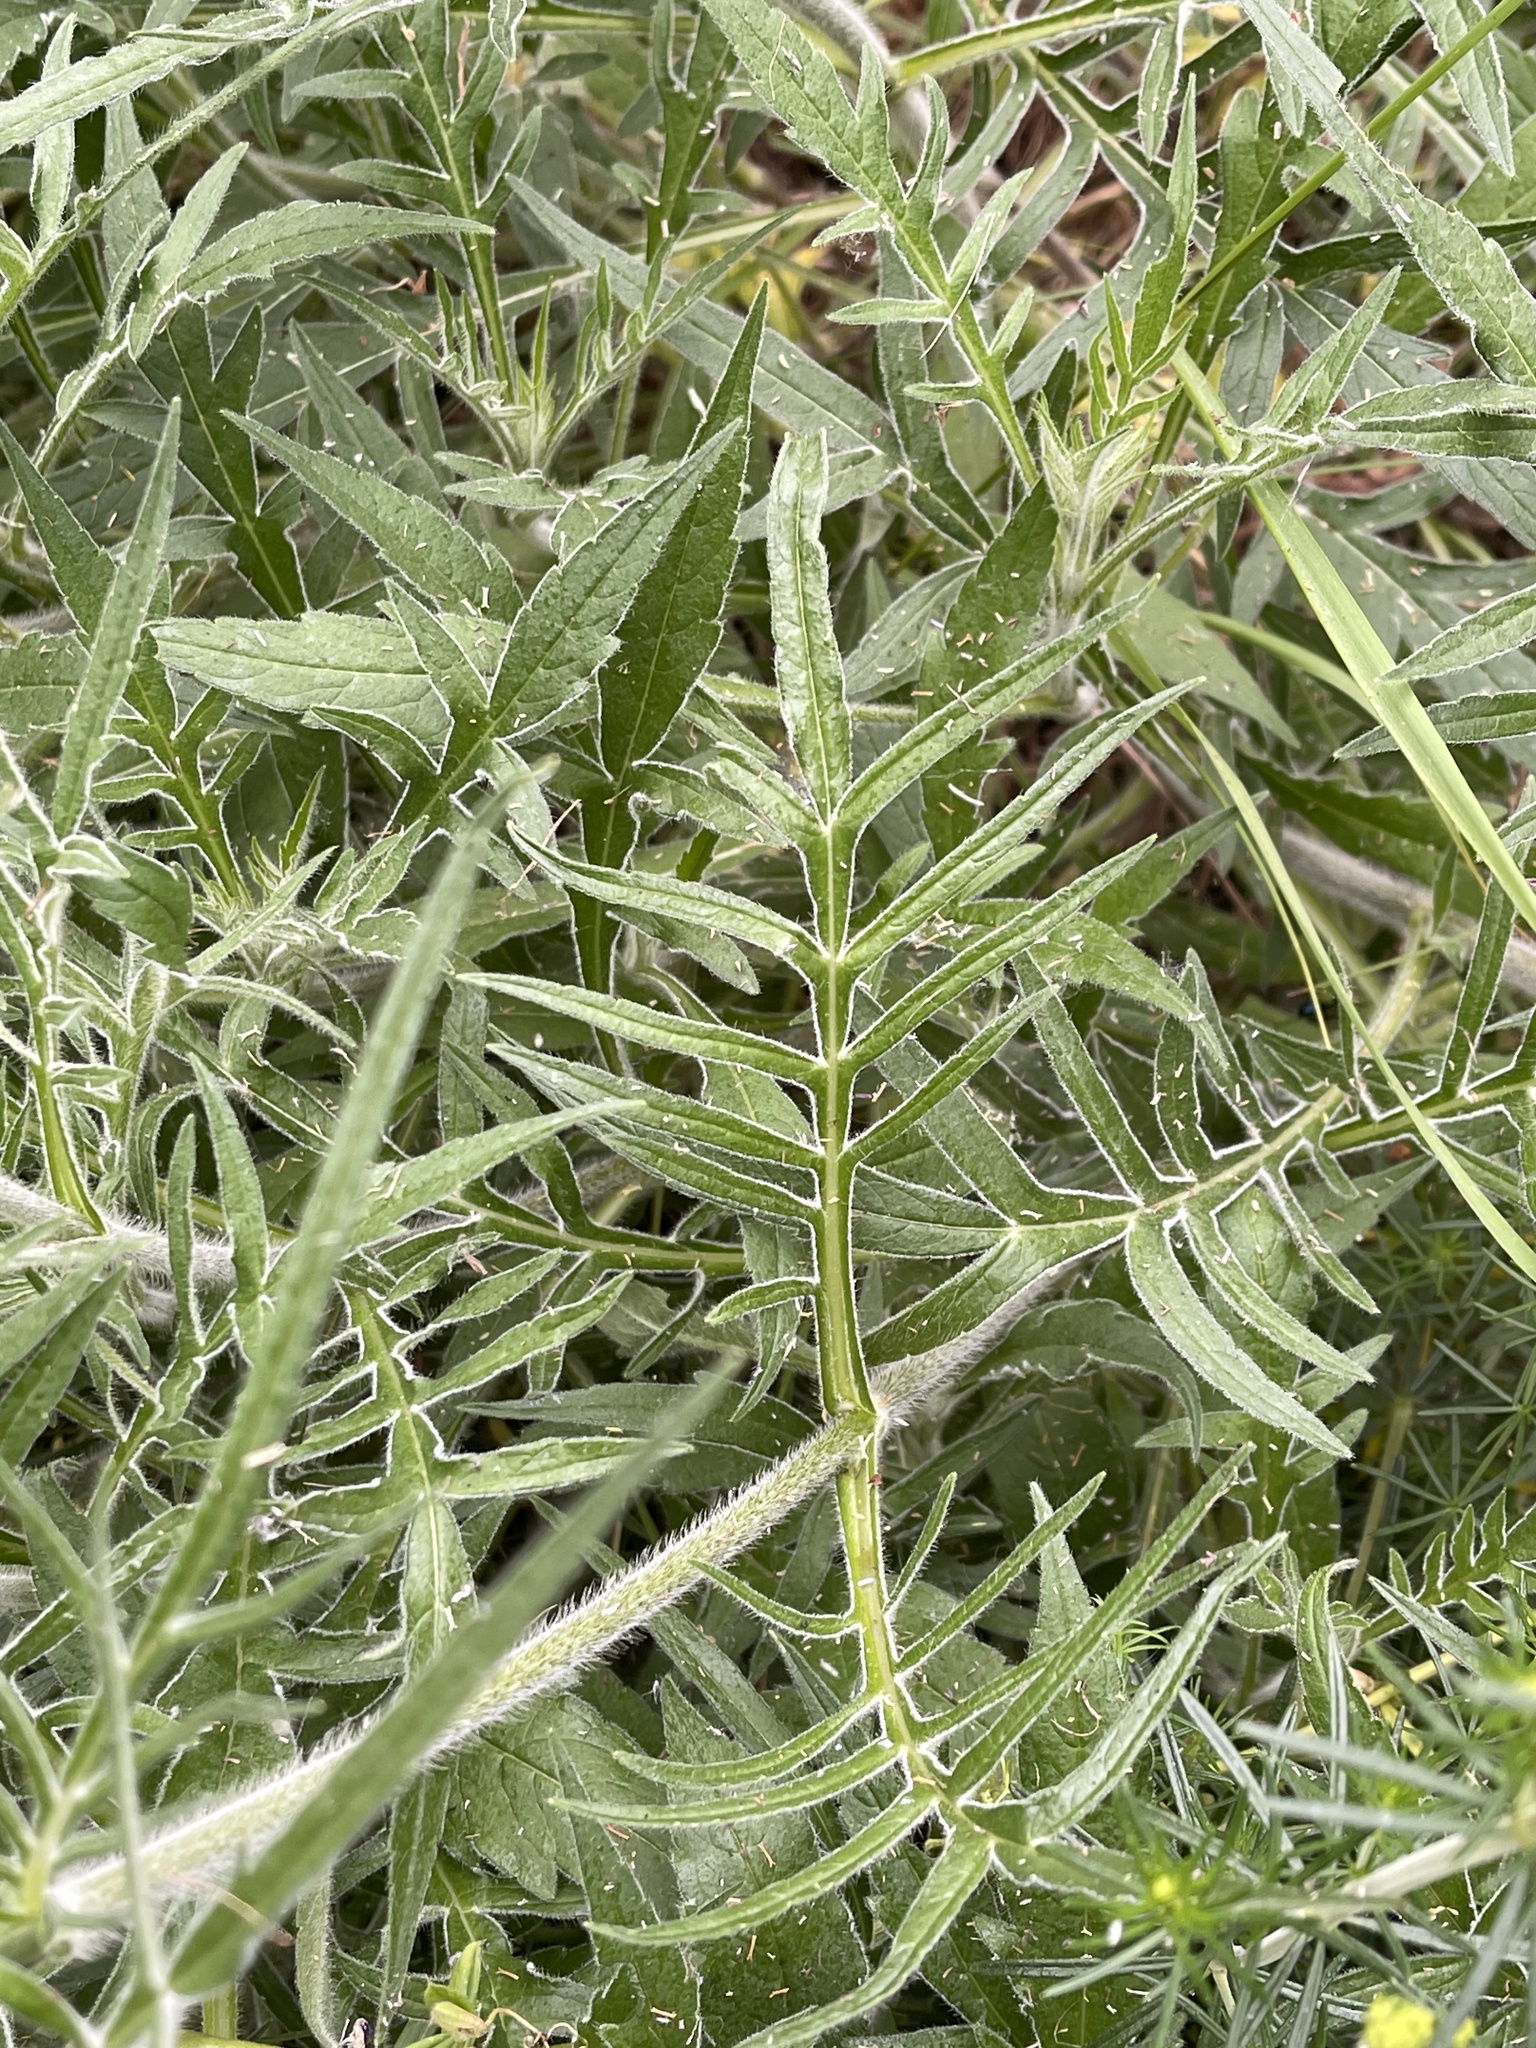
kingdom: Plantae
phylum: Tracheophyta
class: Magnoliopsida
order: Dipsacales
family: Caprifoliaceae
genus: Knautia
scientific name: Knautia arvensis
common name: Field scabiosa
